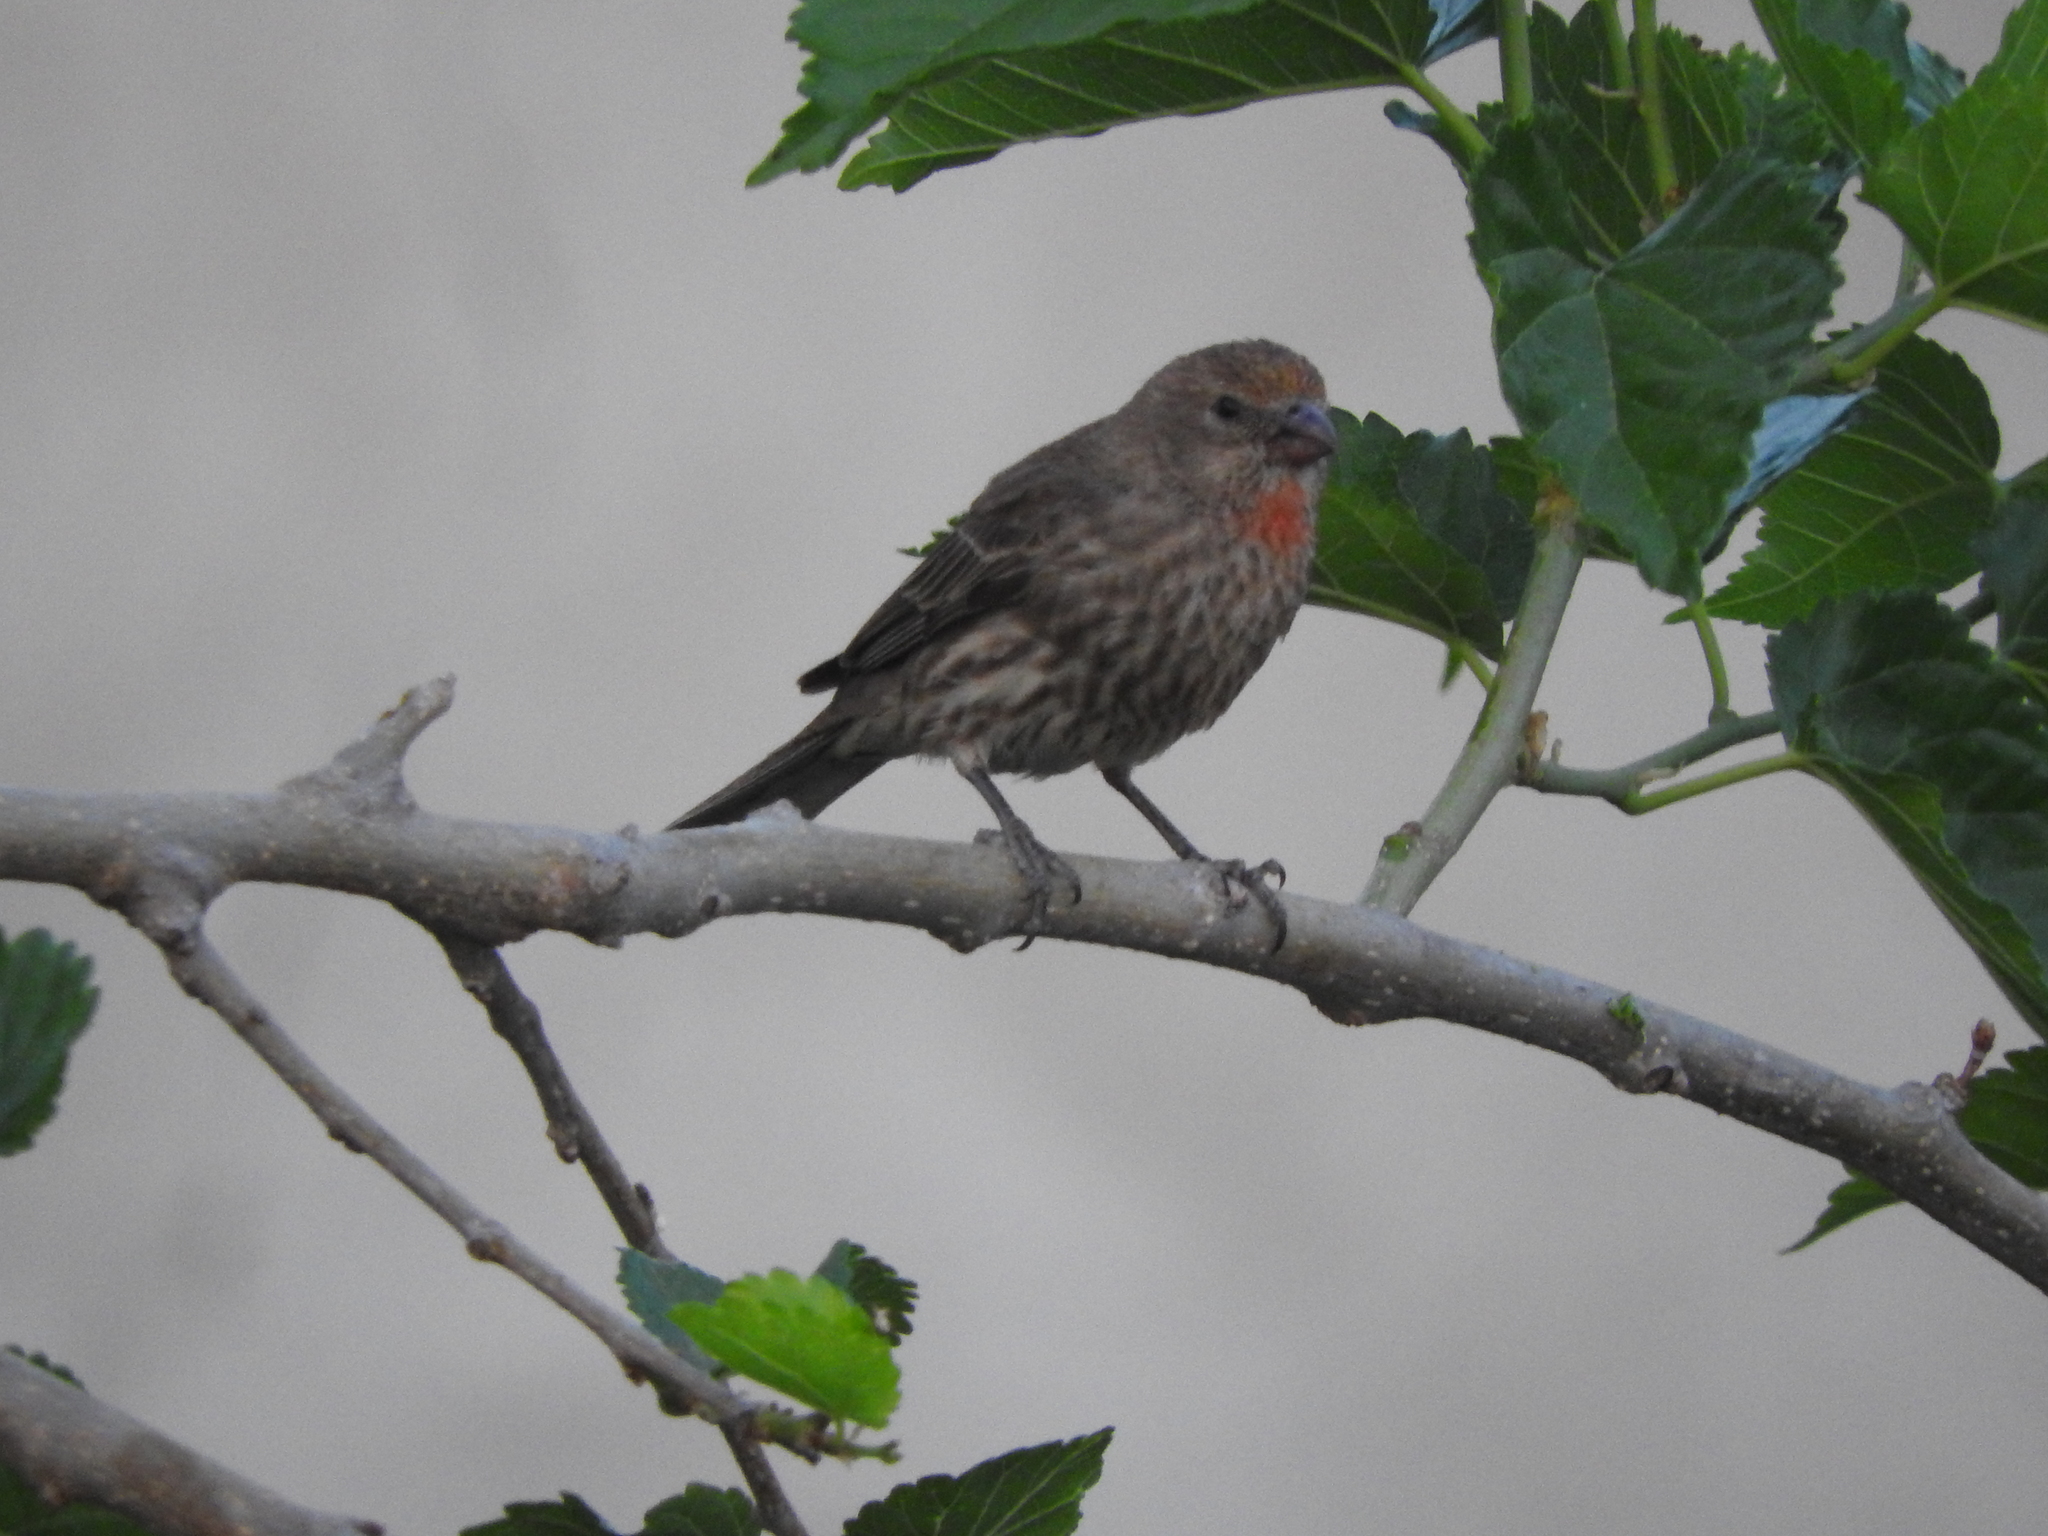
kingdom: Animalia
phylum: Chordata
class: Aves
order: Passeriformes
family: Fringillidae
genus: Haemorhous
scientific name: Haemorhous mexicanus
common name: House finch
